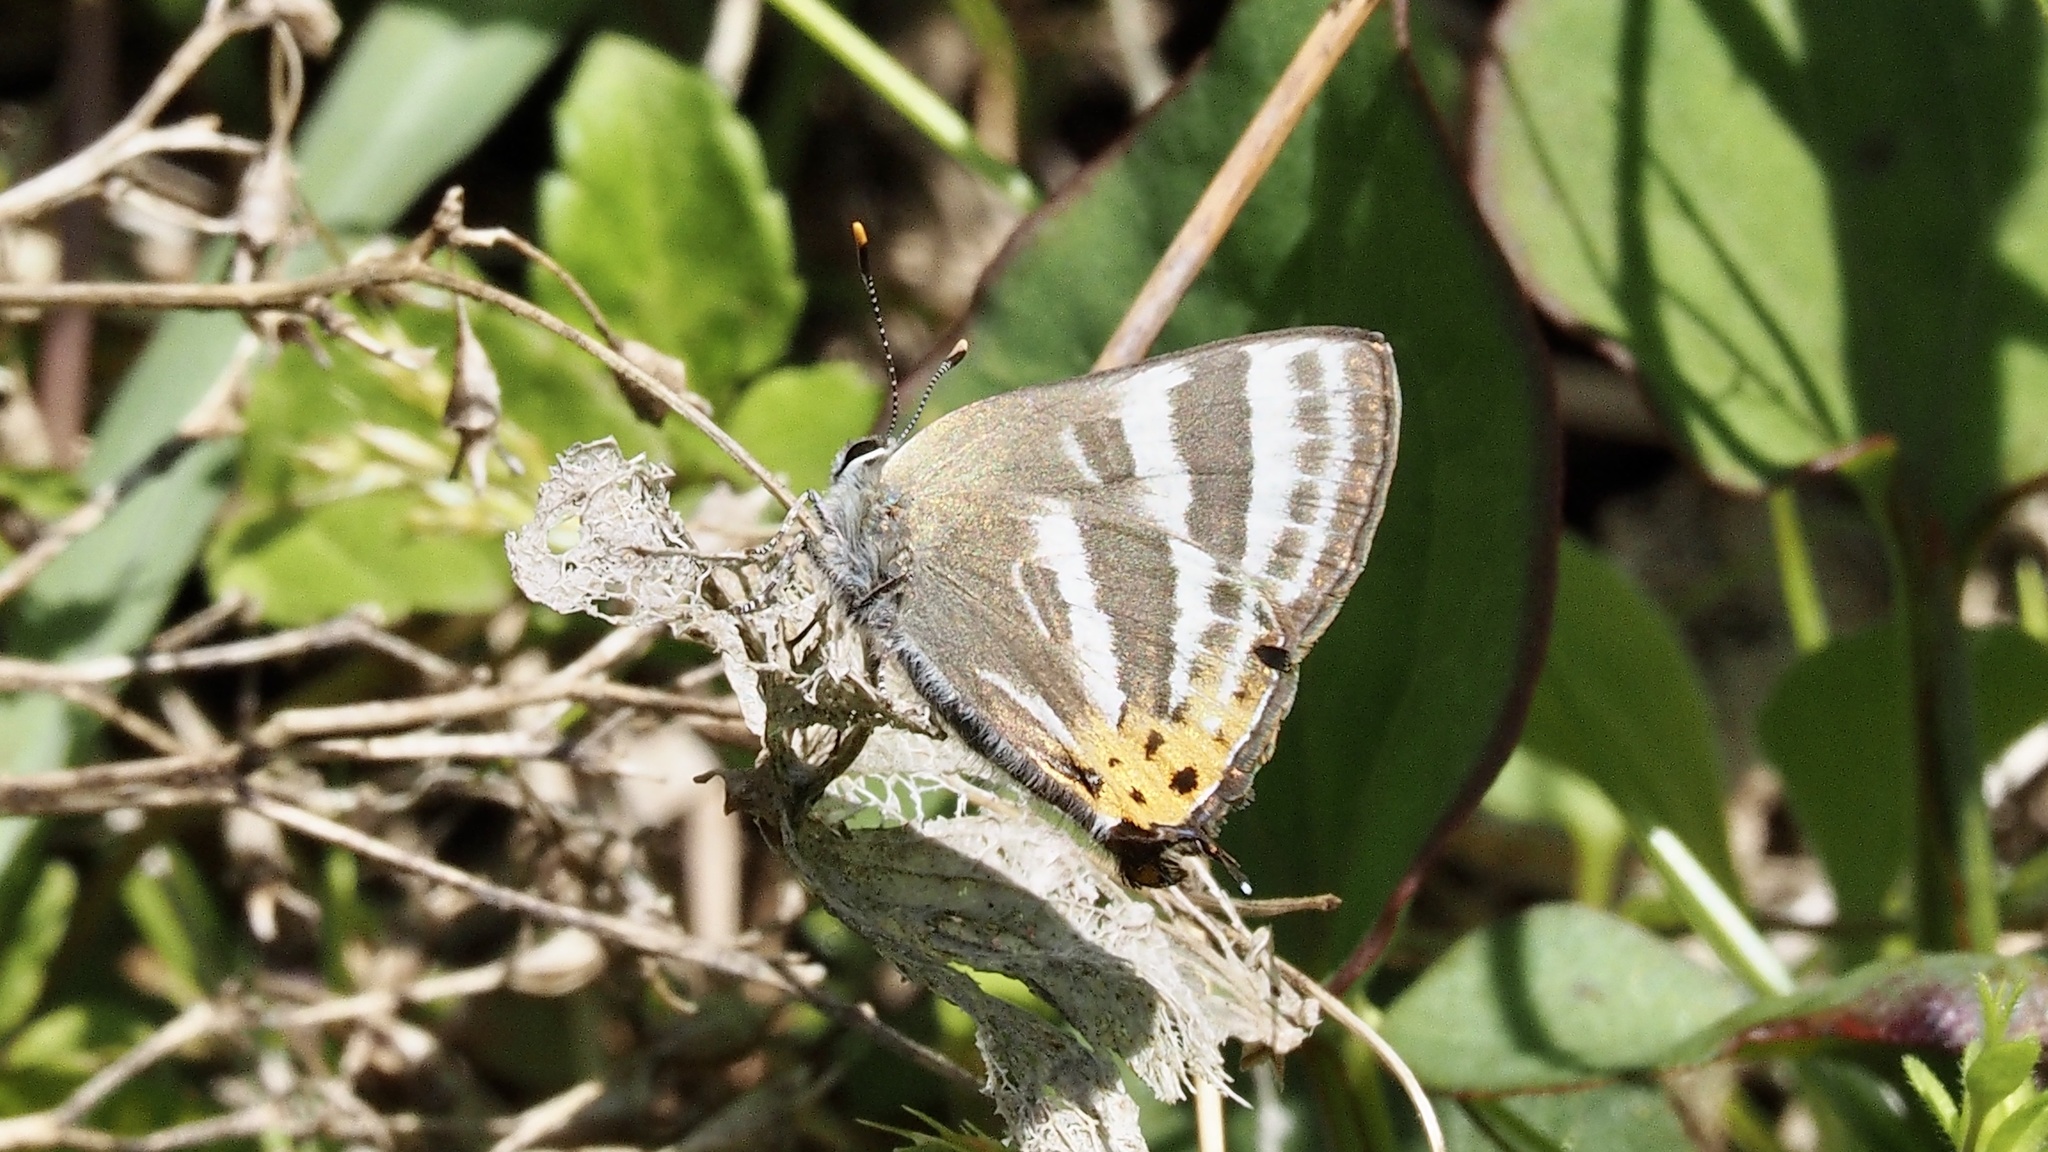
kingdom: Animalia
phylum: Arthropoda
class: Insecta
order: Lepidoptera
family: Lycaenidae
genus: Rapala
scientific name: Rapala arata
